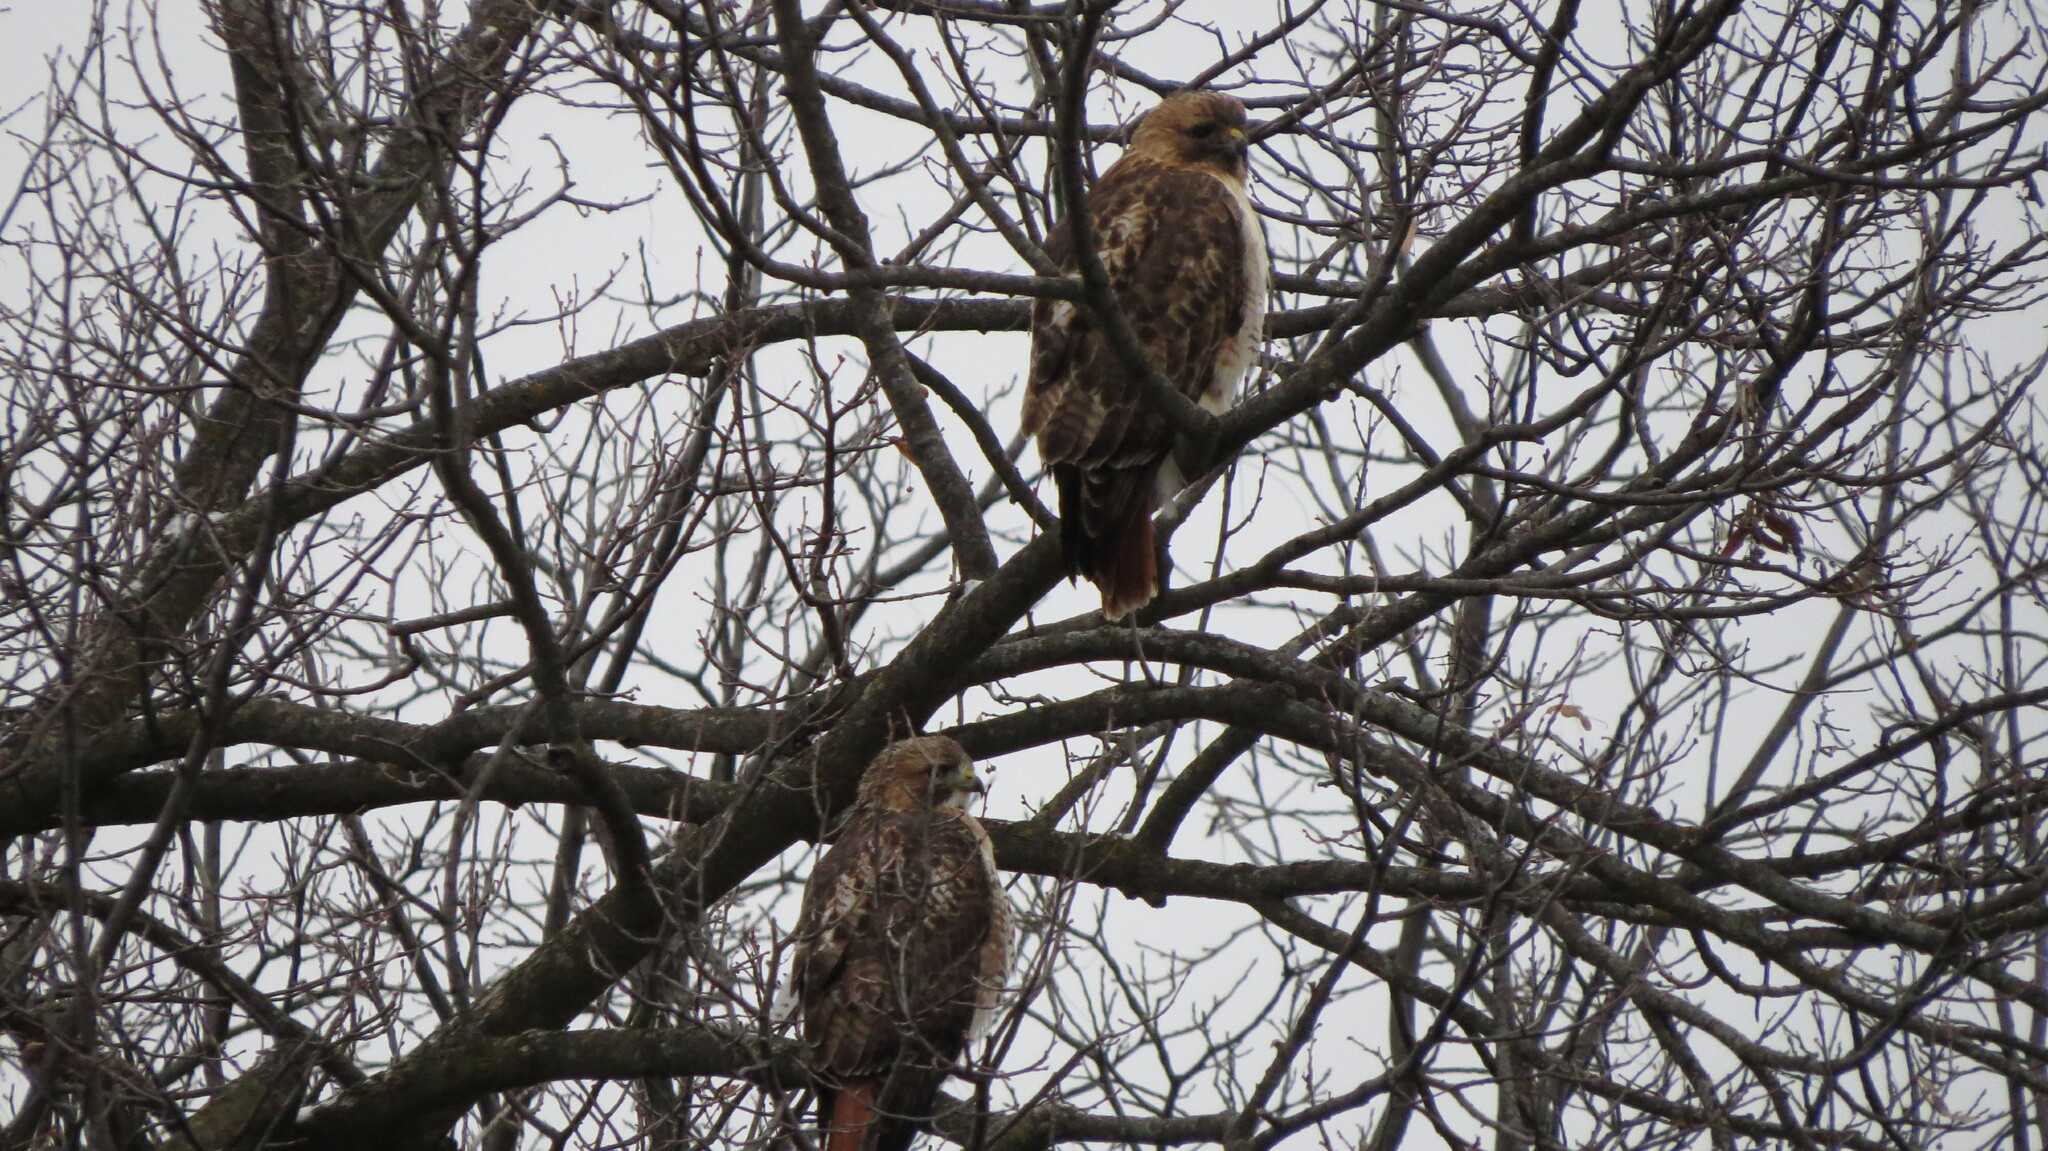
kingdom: Animalia
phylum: Chordata
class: Aves
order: Accipitriformes
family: Accipitridae
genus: Buteo
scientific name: Buteo jamaicensis
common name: Red-tailed hawk
